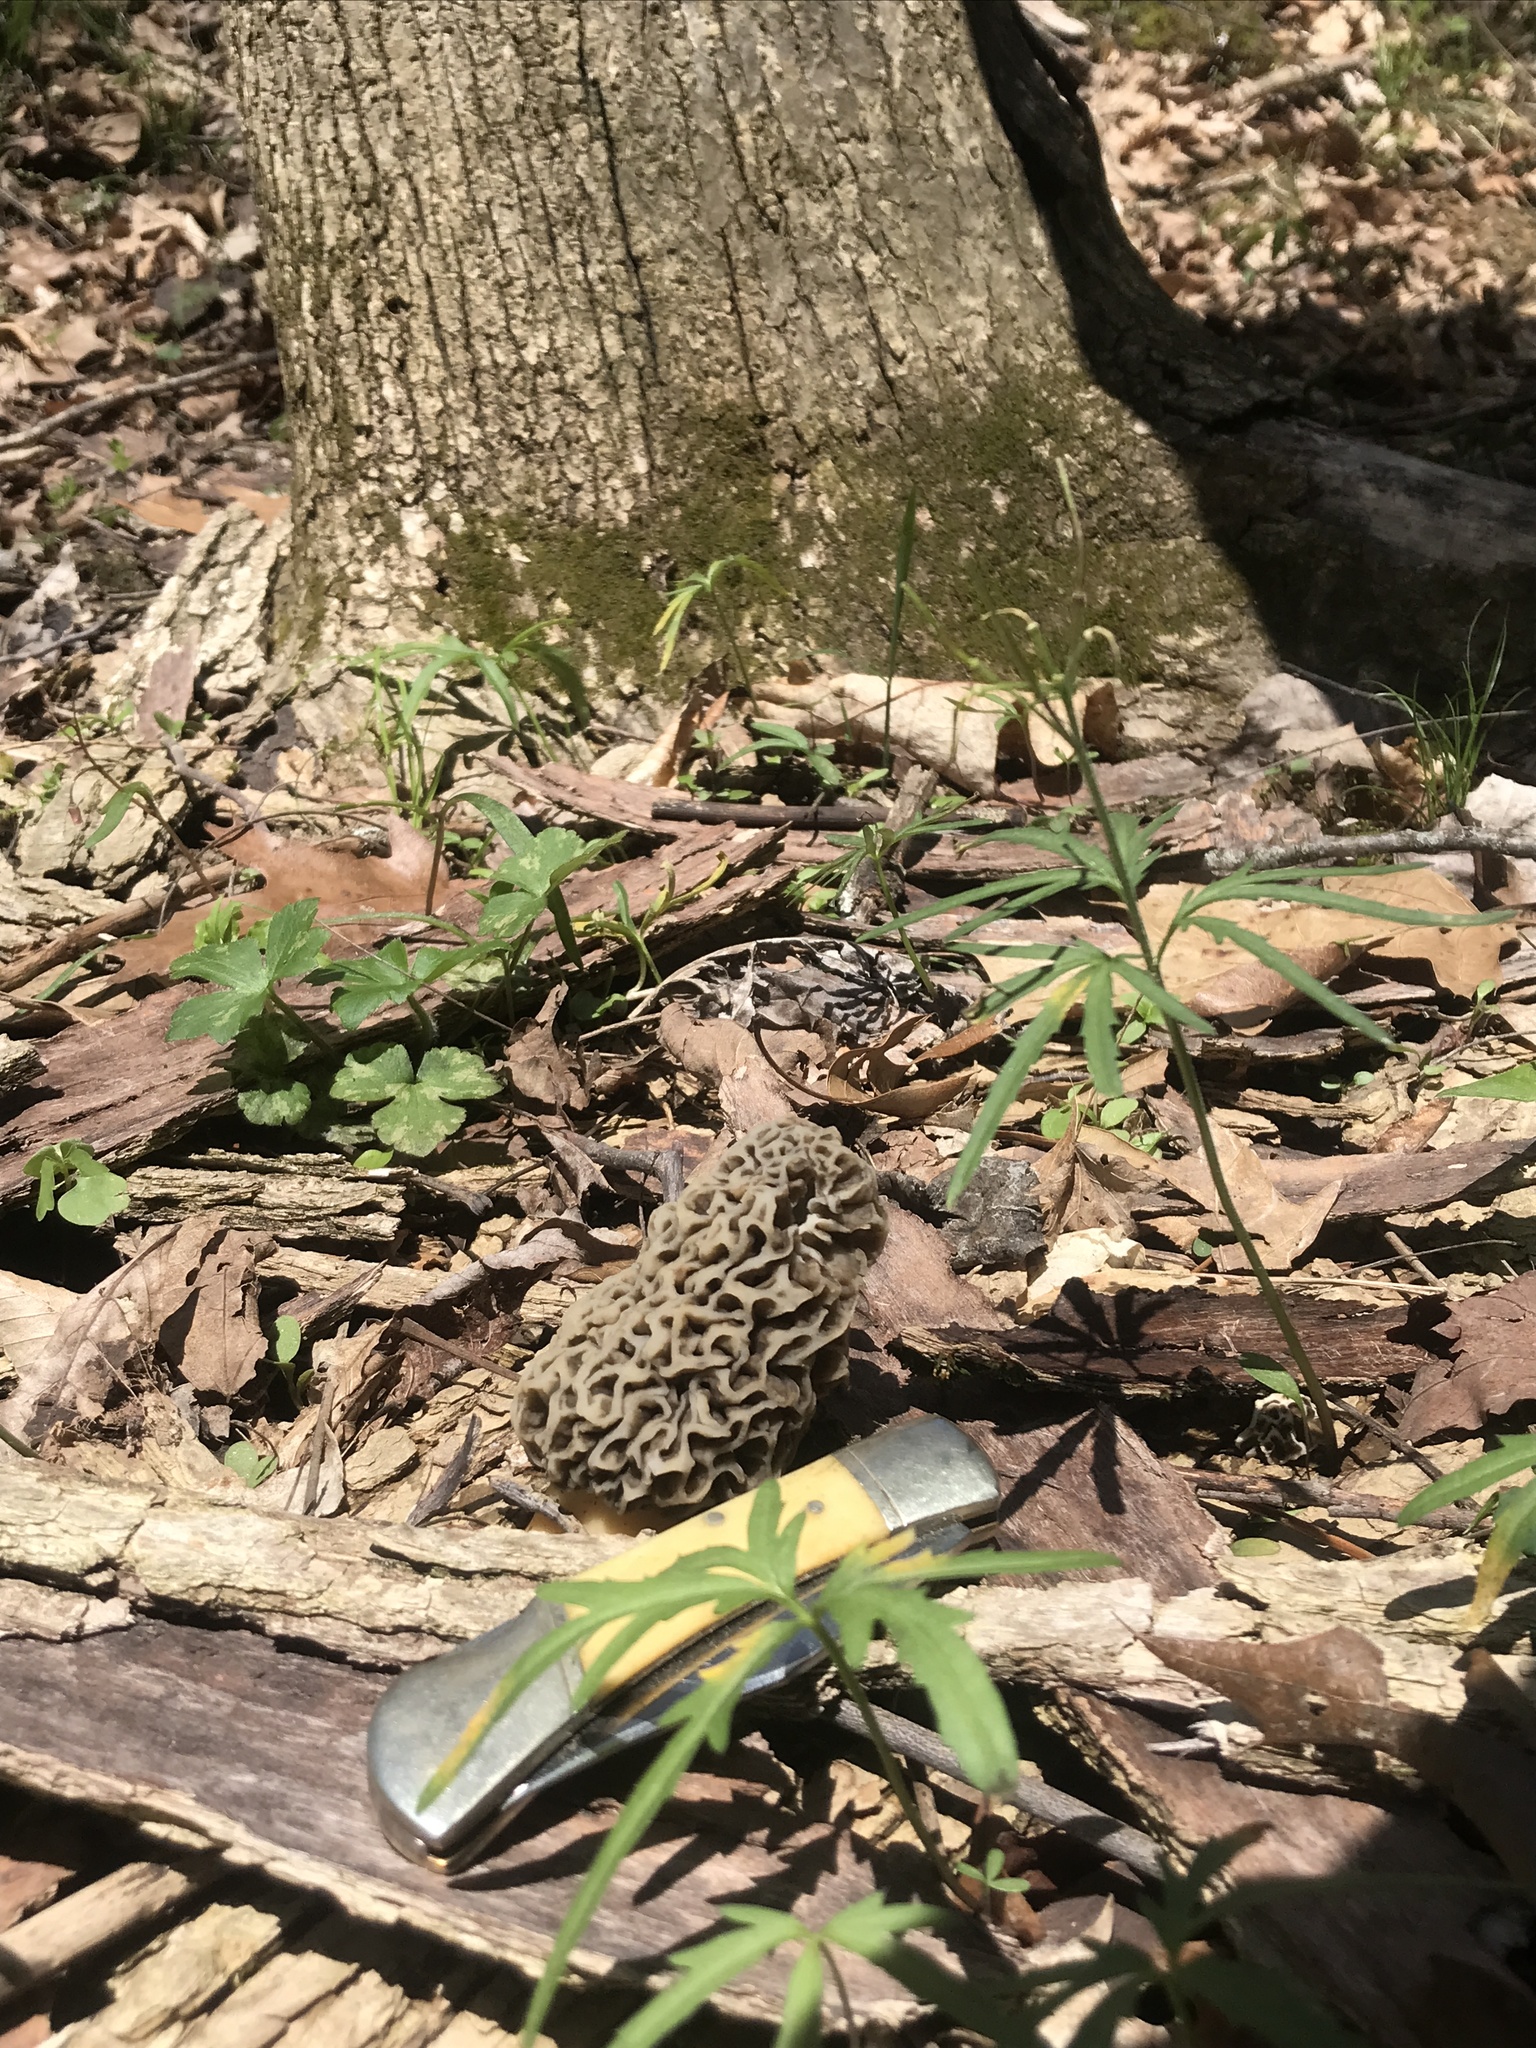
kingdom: Fungi
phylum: Ascomycota
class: Pezizomycetes
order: Pezizales
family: Morchellaceae
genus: Morchella
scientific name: Morchella americana
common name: White morel
